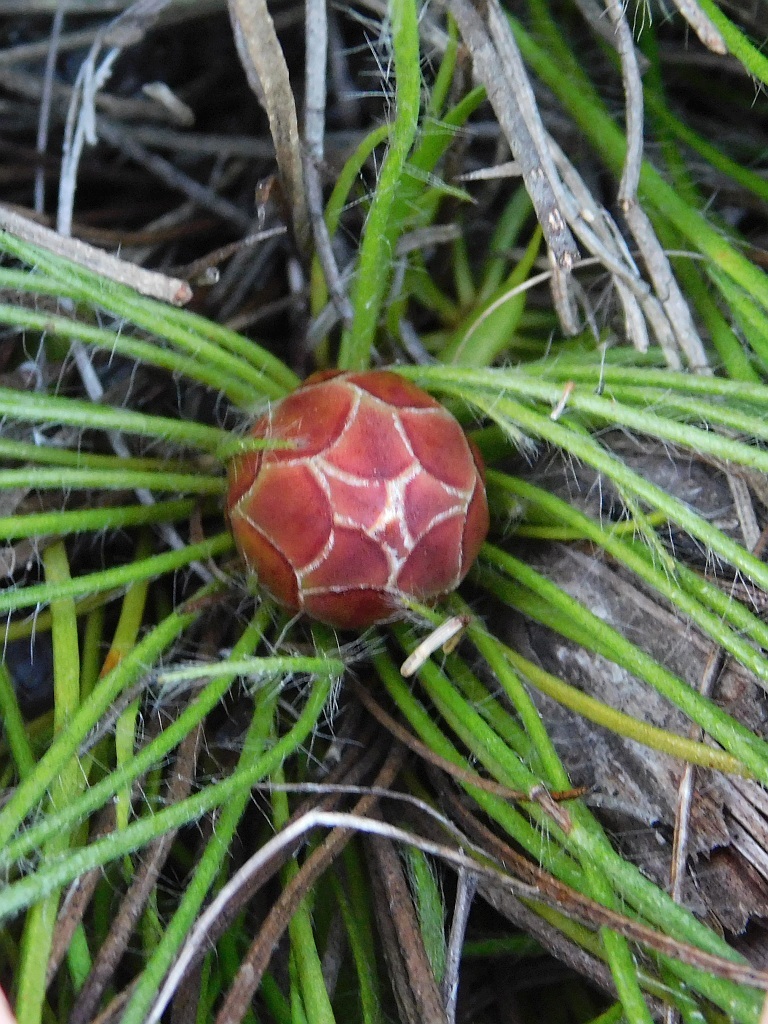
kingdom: Plantae
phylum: Tracheophyta
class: Magnoliopsida
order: Proteales
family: Proteaceae
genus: Protea
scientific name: Protea restionifolia
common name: Reed-leaf sugarbush
